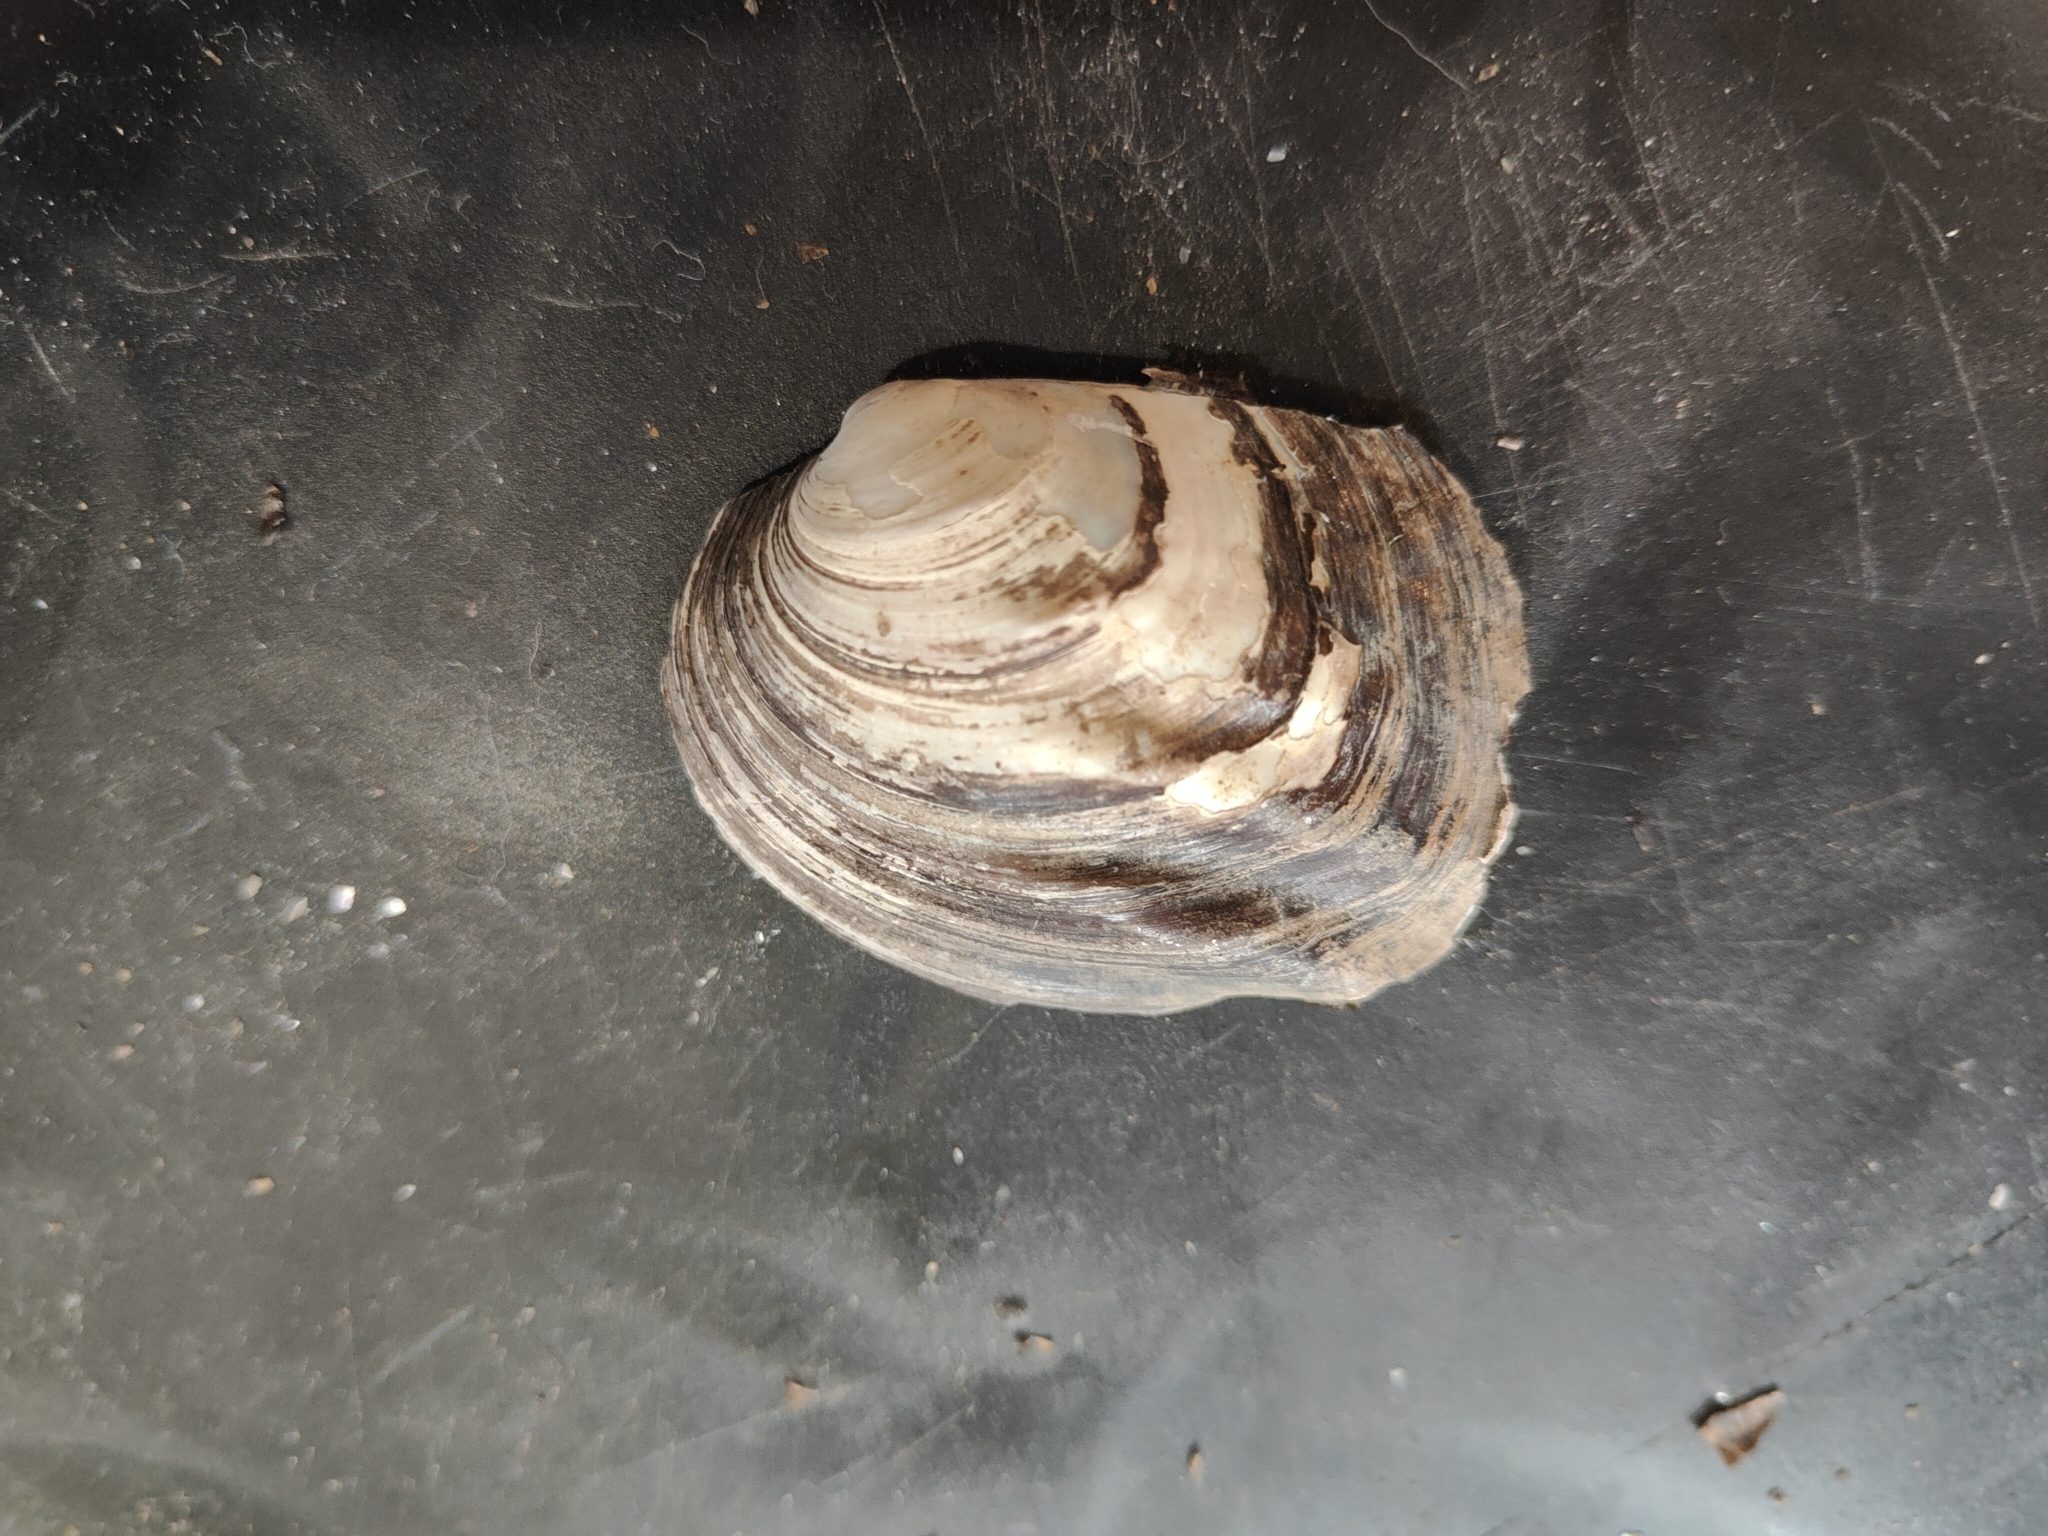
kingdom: Animalia
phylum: Mollusca
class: Bivalvia
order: Unionida
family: Unionidae
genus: Amblema
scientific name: Amblema plicata
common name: Threeridge
